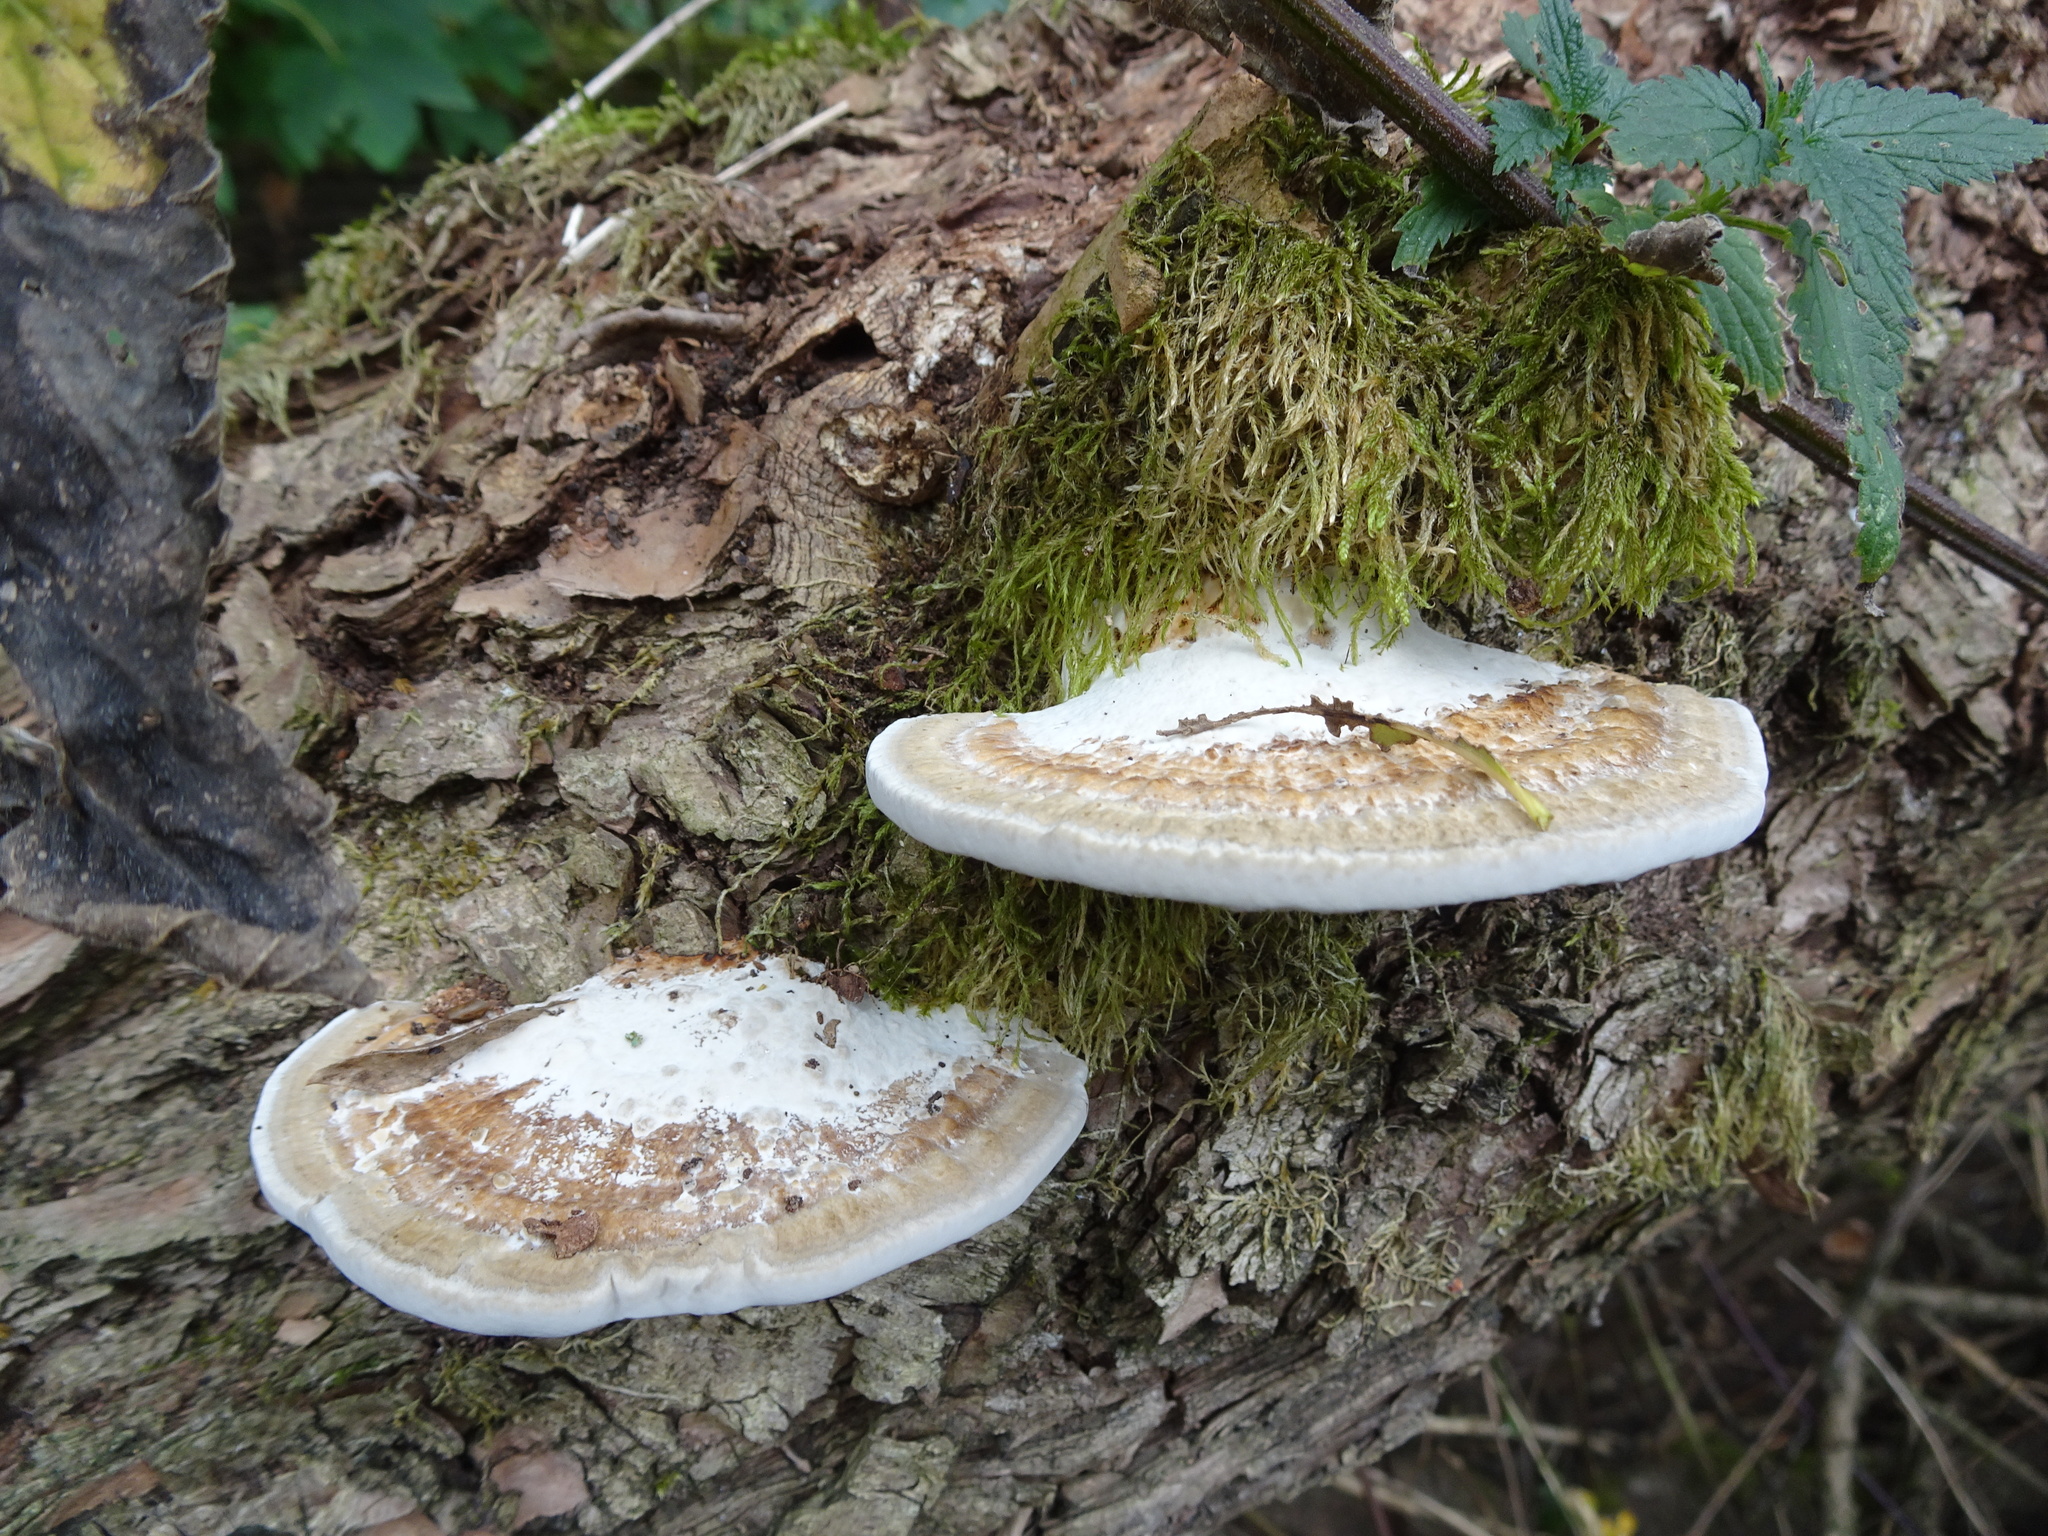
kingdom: Fungi
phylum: Basidiomycota
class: Agaricomycetes
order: Polyporales
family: Polyporaceae
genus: Daedaleopsis
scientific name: Daedaleopsis confragosa
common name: Blushing bracket
